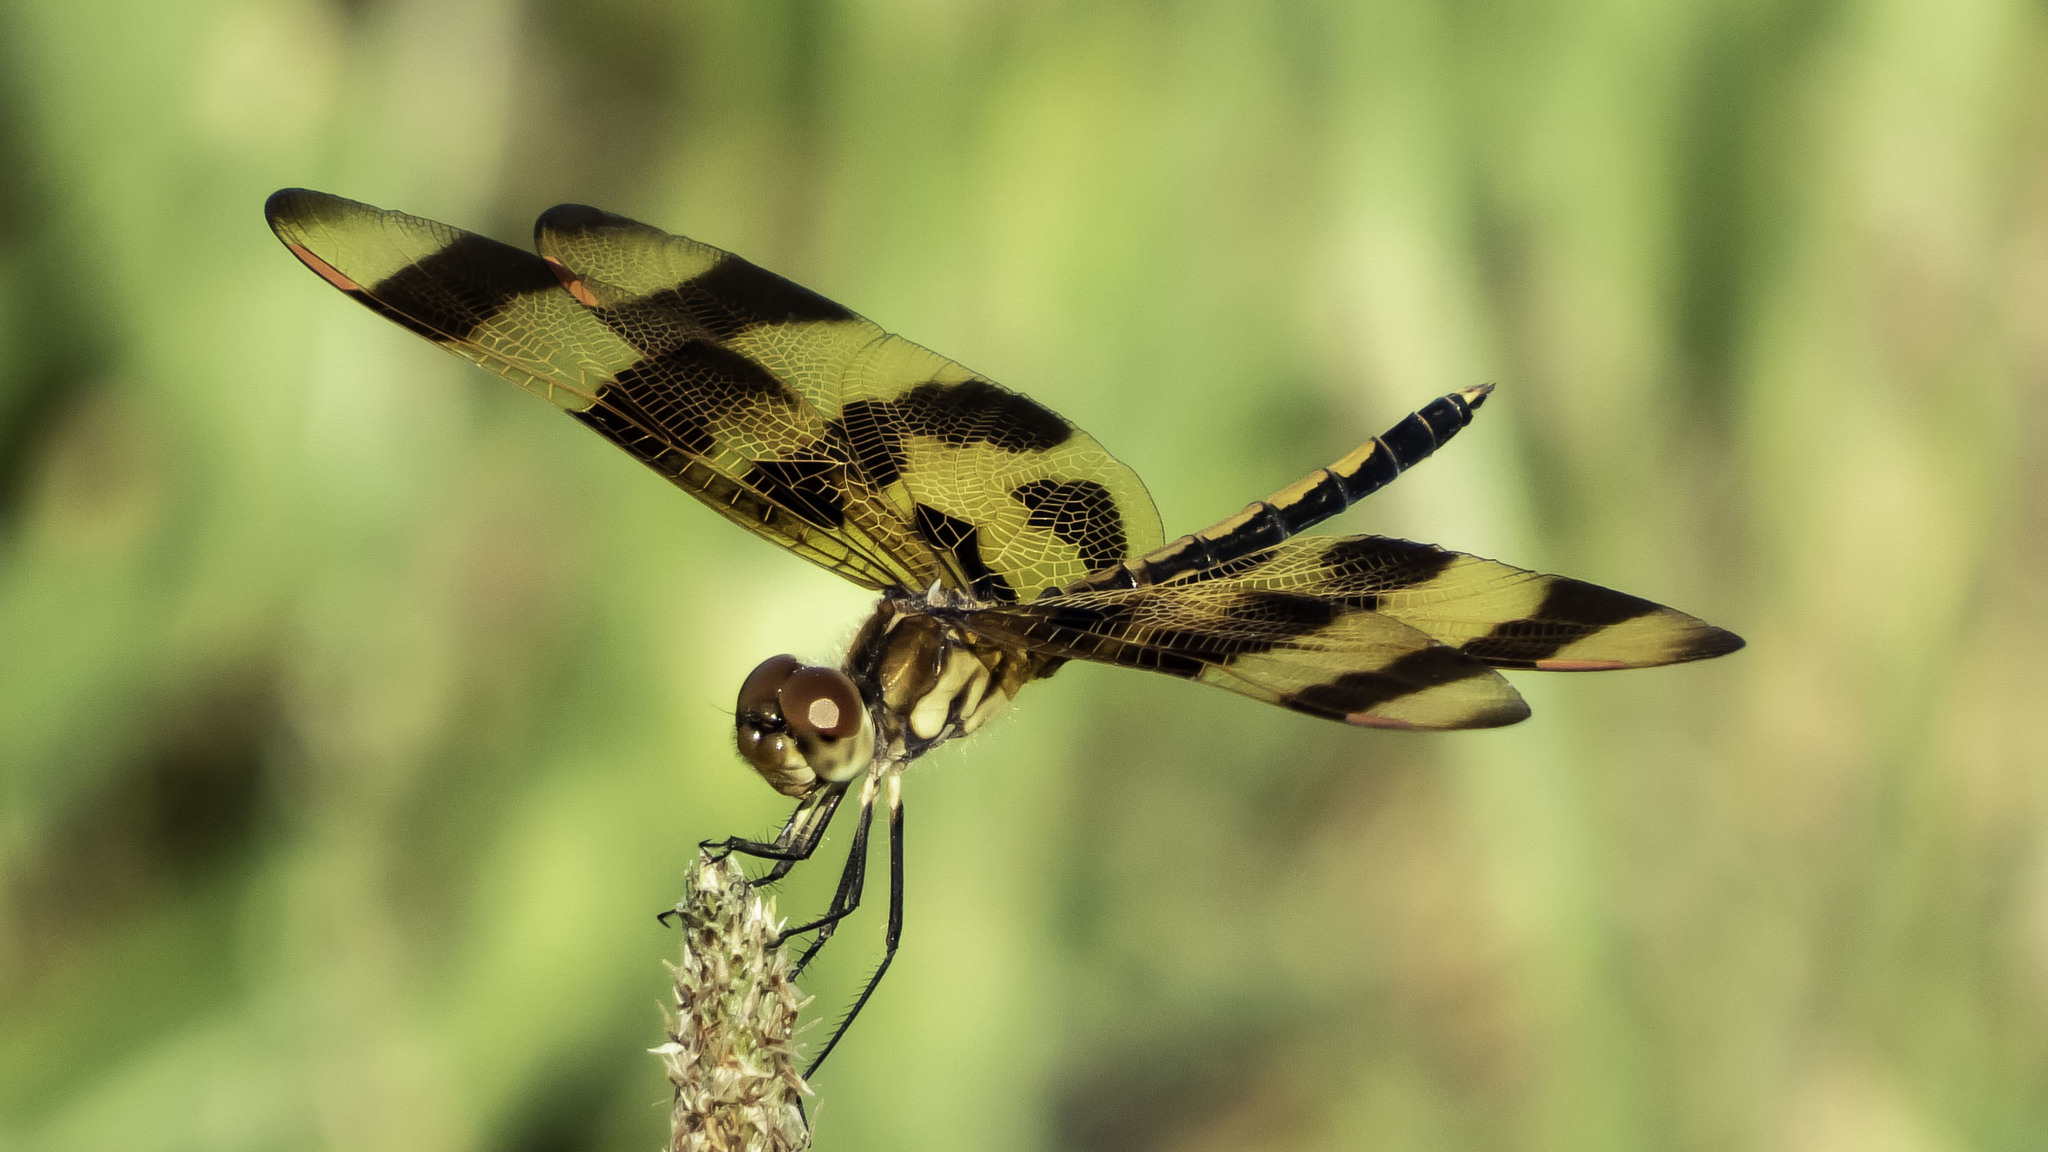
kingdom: Animalia
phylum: Arthropoda
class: Insecta
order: Odonata
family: Libellulidae
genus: Celithemis
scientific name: Celithemis eponina
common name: Halloween pennant
